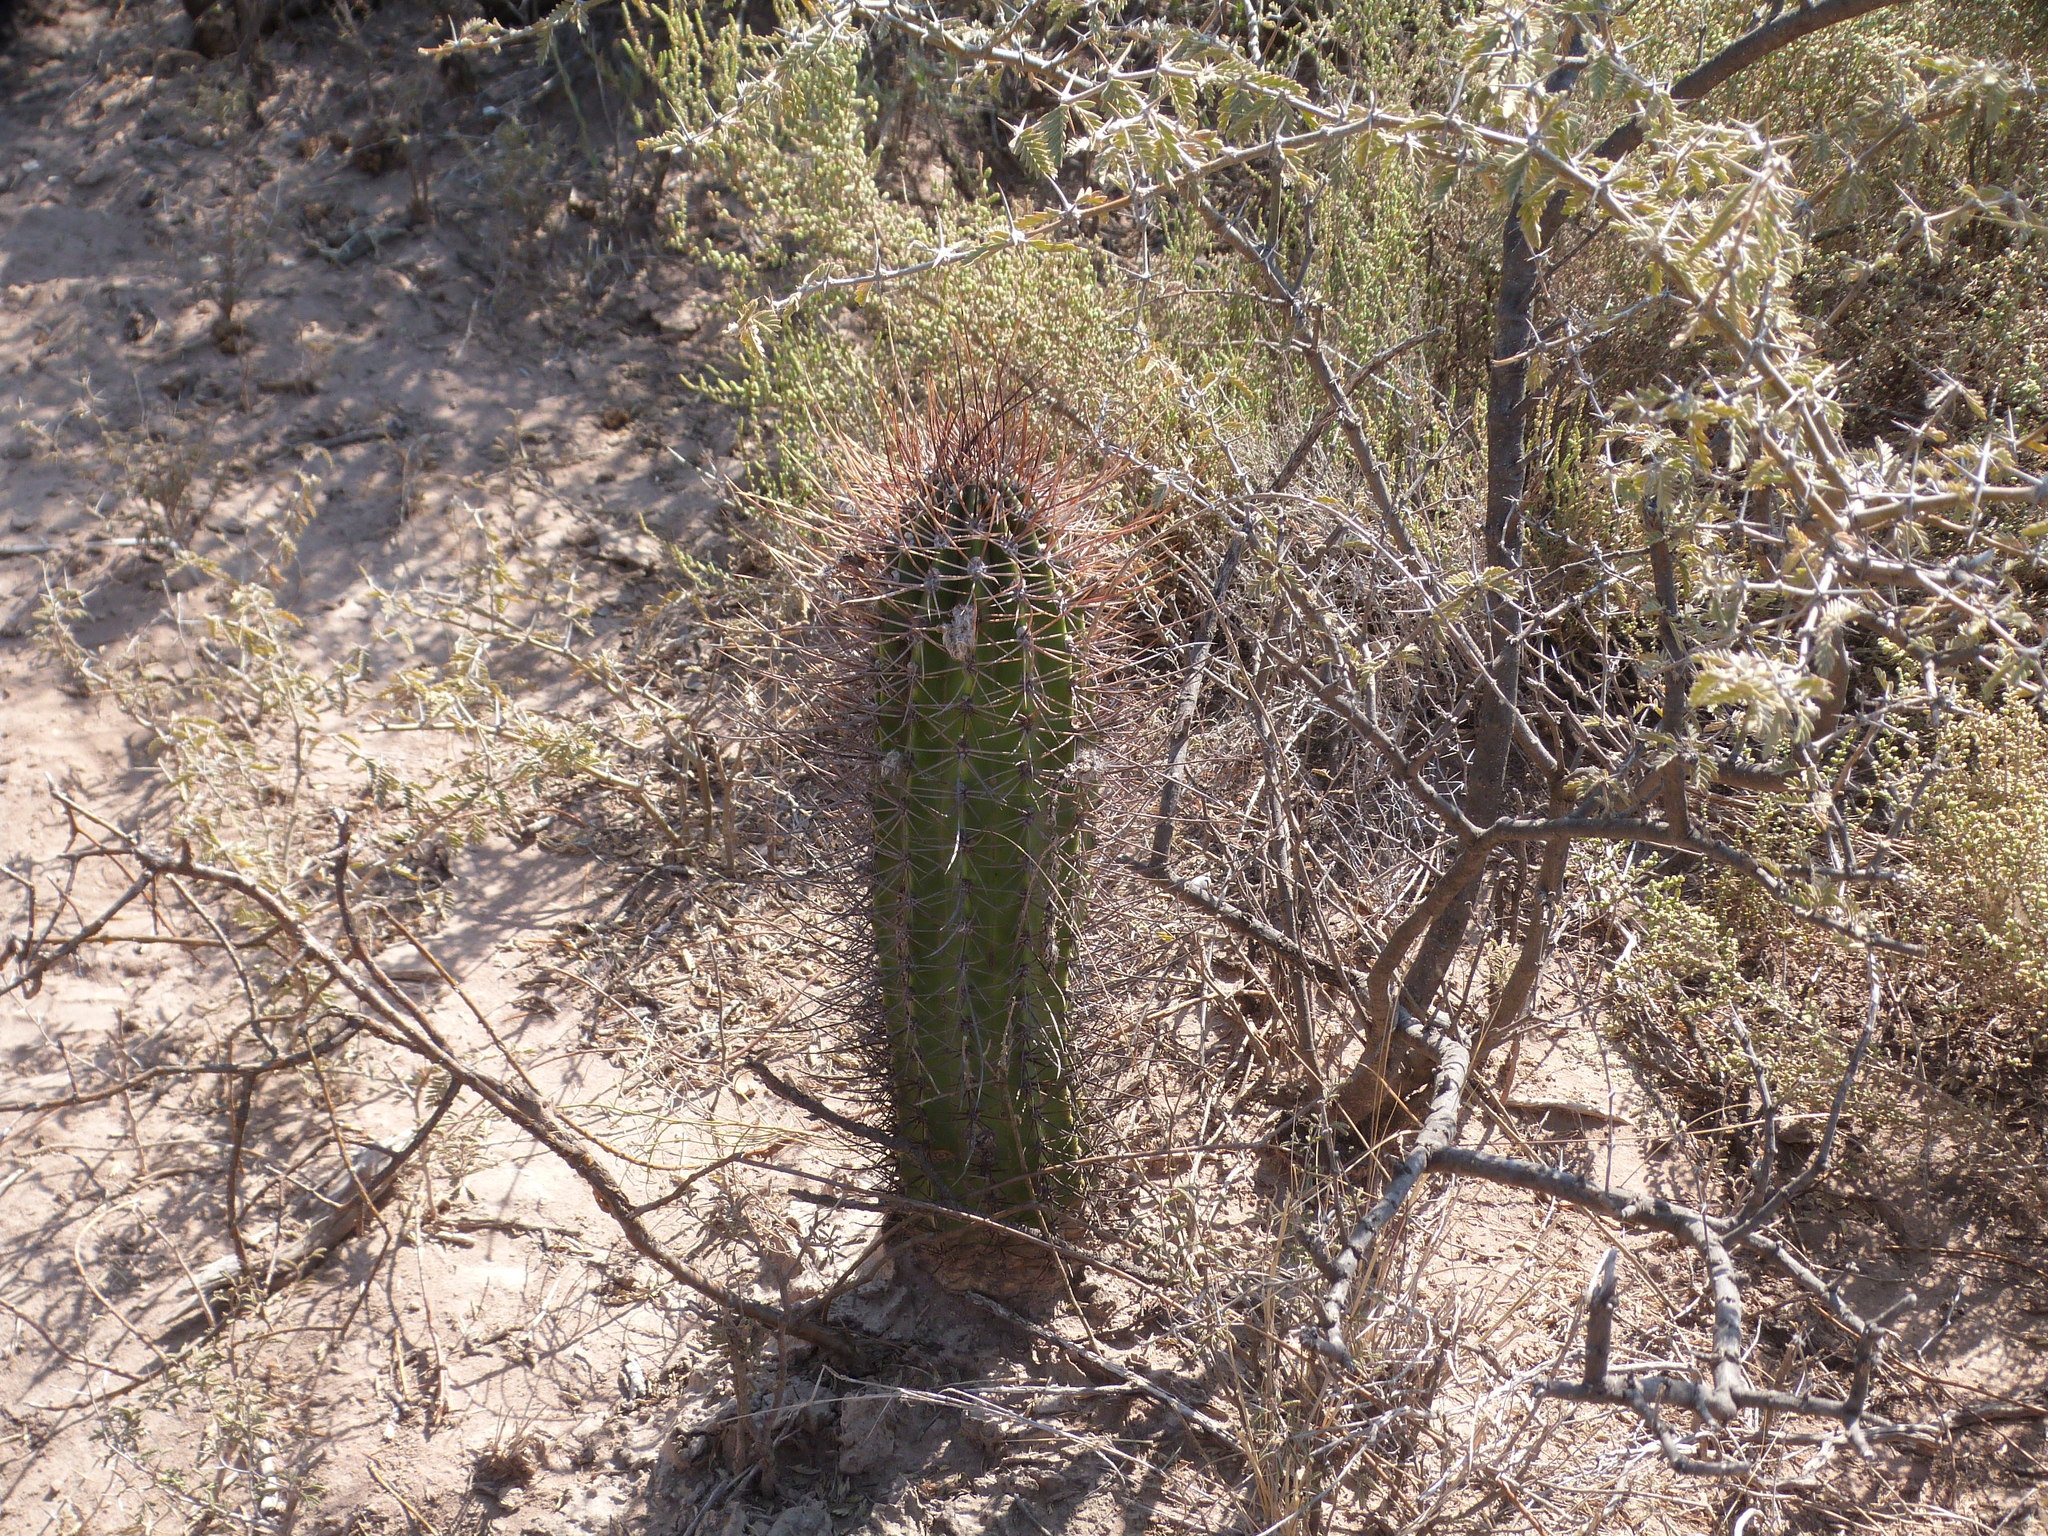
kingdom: Plantae
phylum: Tracheophyta
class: Magnoliopsida
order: Caryophyllales
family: Cactaceae
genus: Acanthocalycium
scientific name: Acanthocalycium leucanthum
